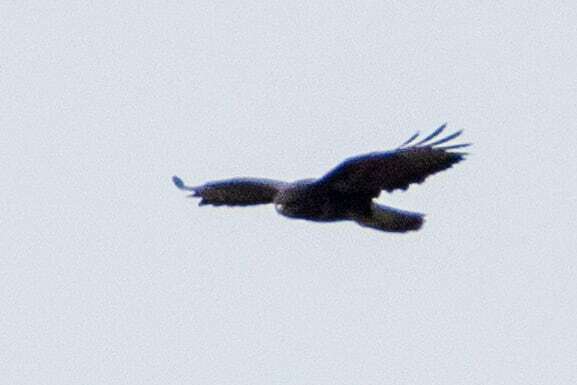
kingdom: Animalia
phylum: Chordata
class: Aves
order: Accipitriformes
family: Accipitridae
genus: Buteo
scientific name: Buteo buteo
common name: Common buzzard
